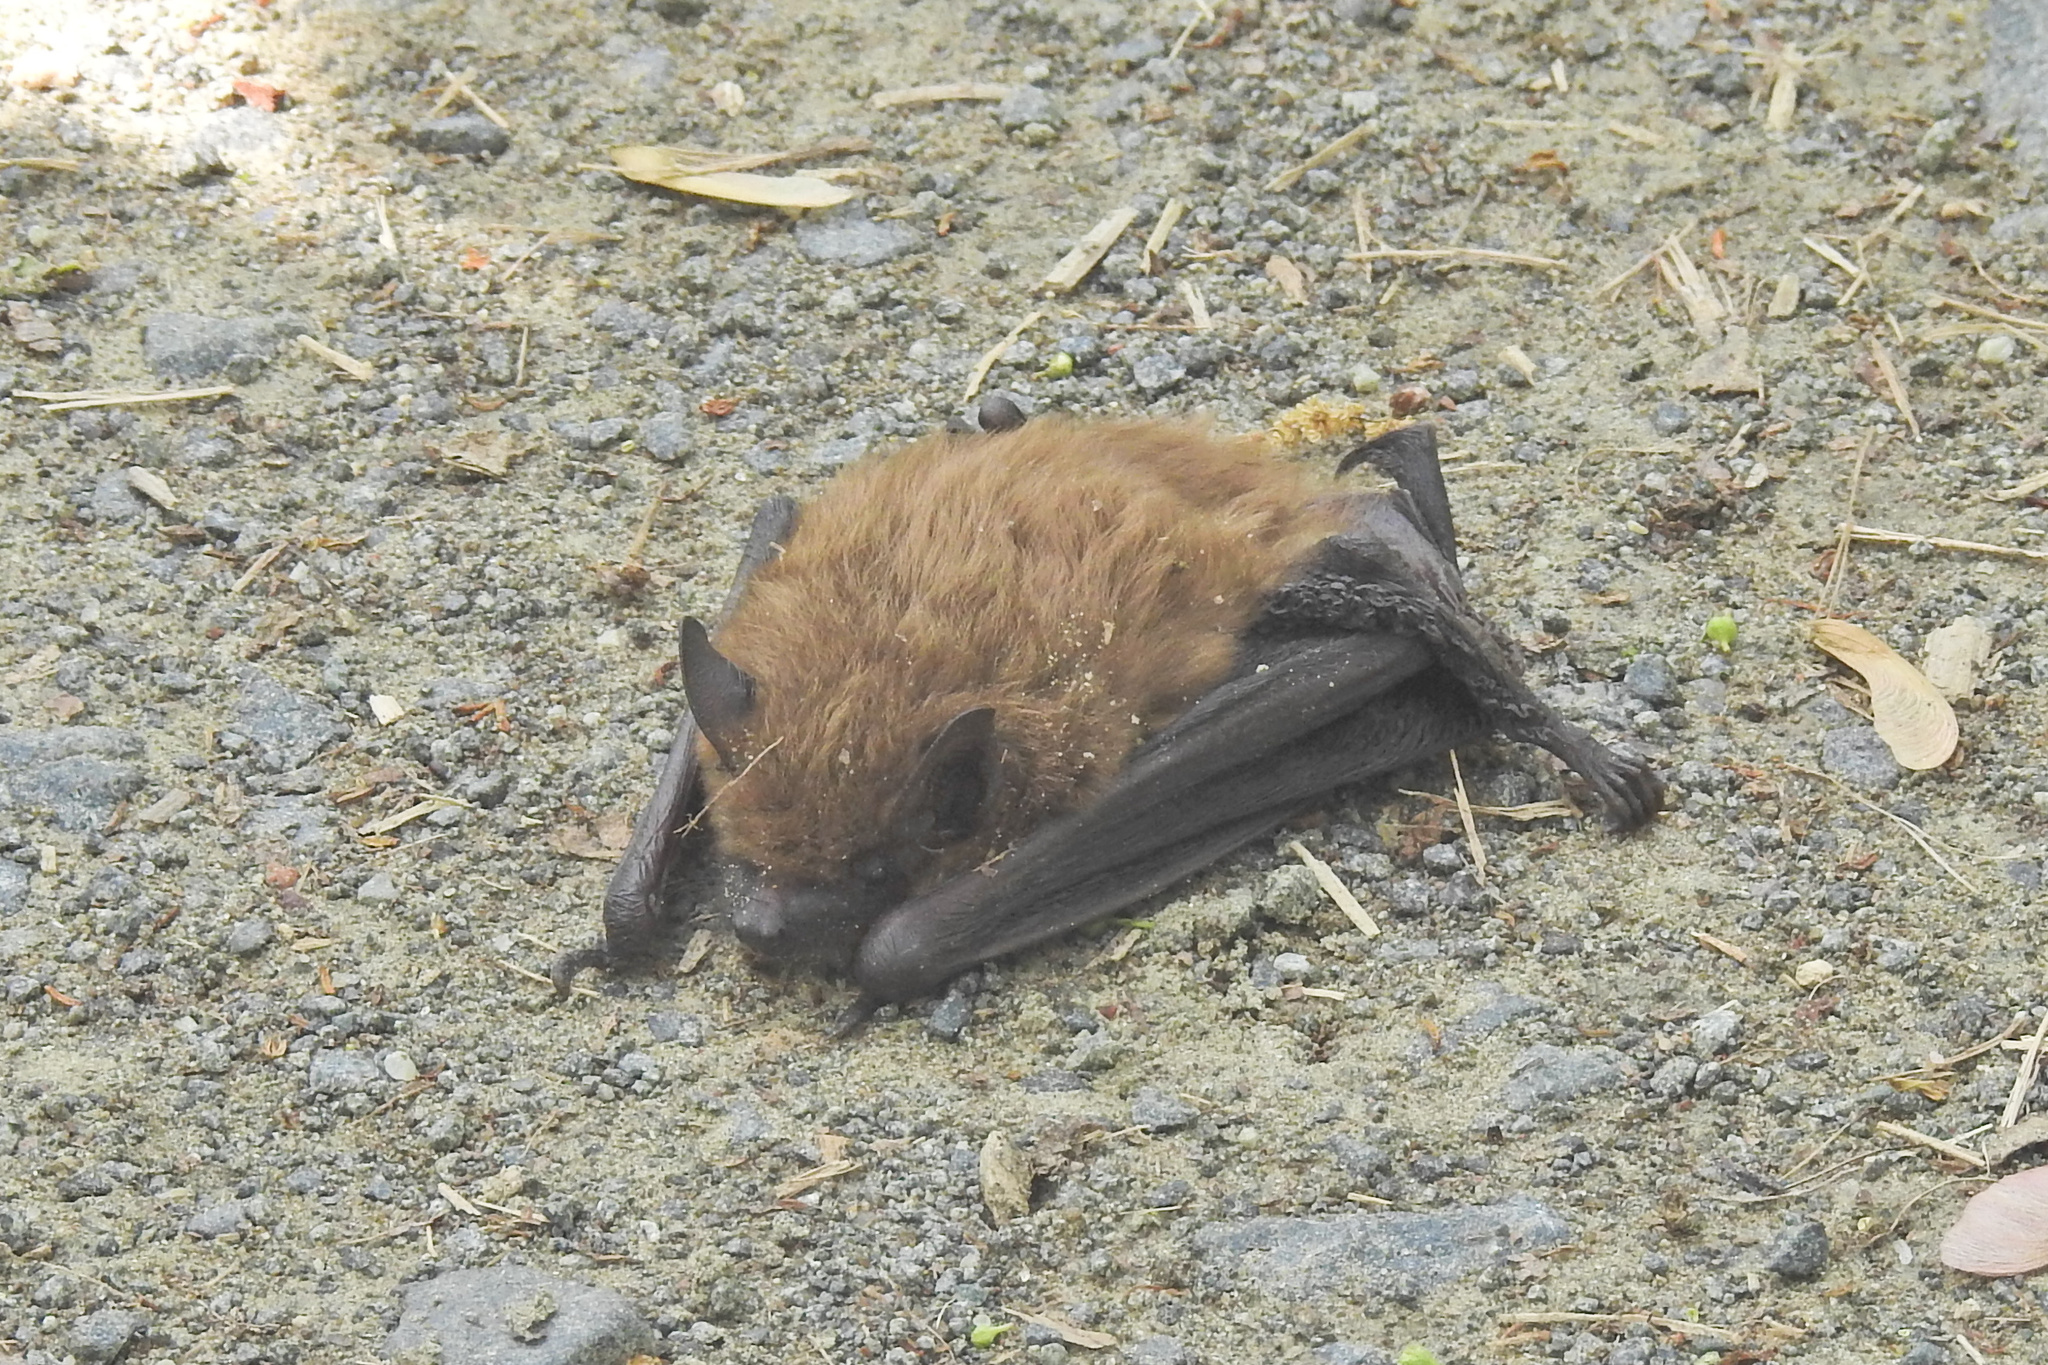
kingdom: Animalia
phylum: Chordata
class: Mammalia
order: Chiroptera
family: Vespertilionidae
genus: Eptesicus
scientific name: Eptesicus fuscus
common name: Big brown bat
